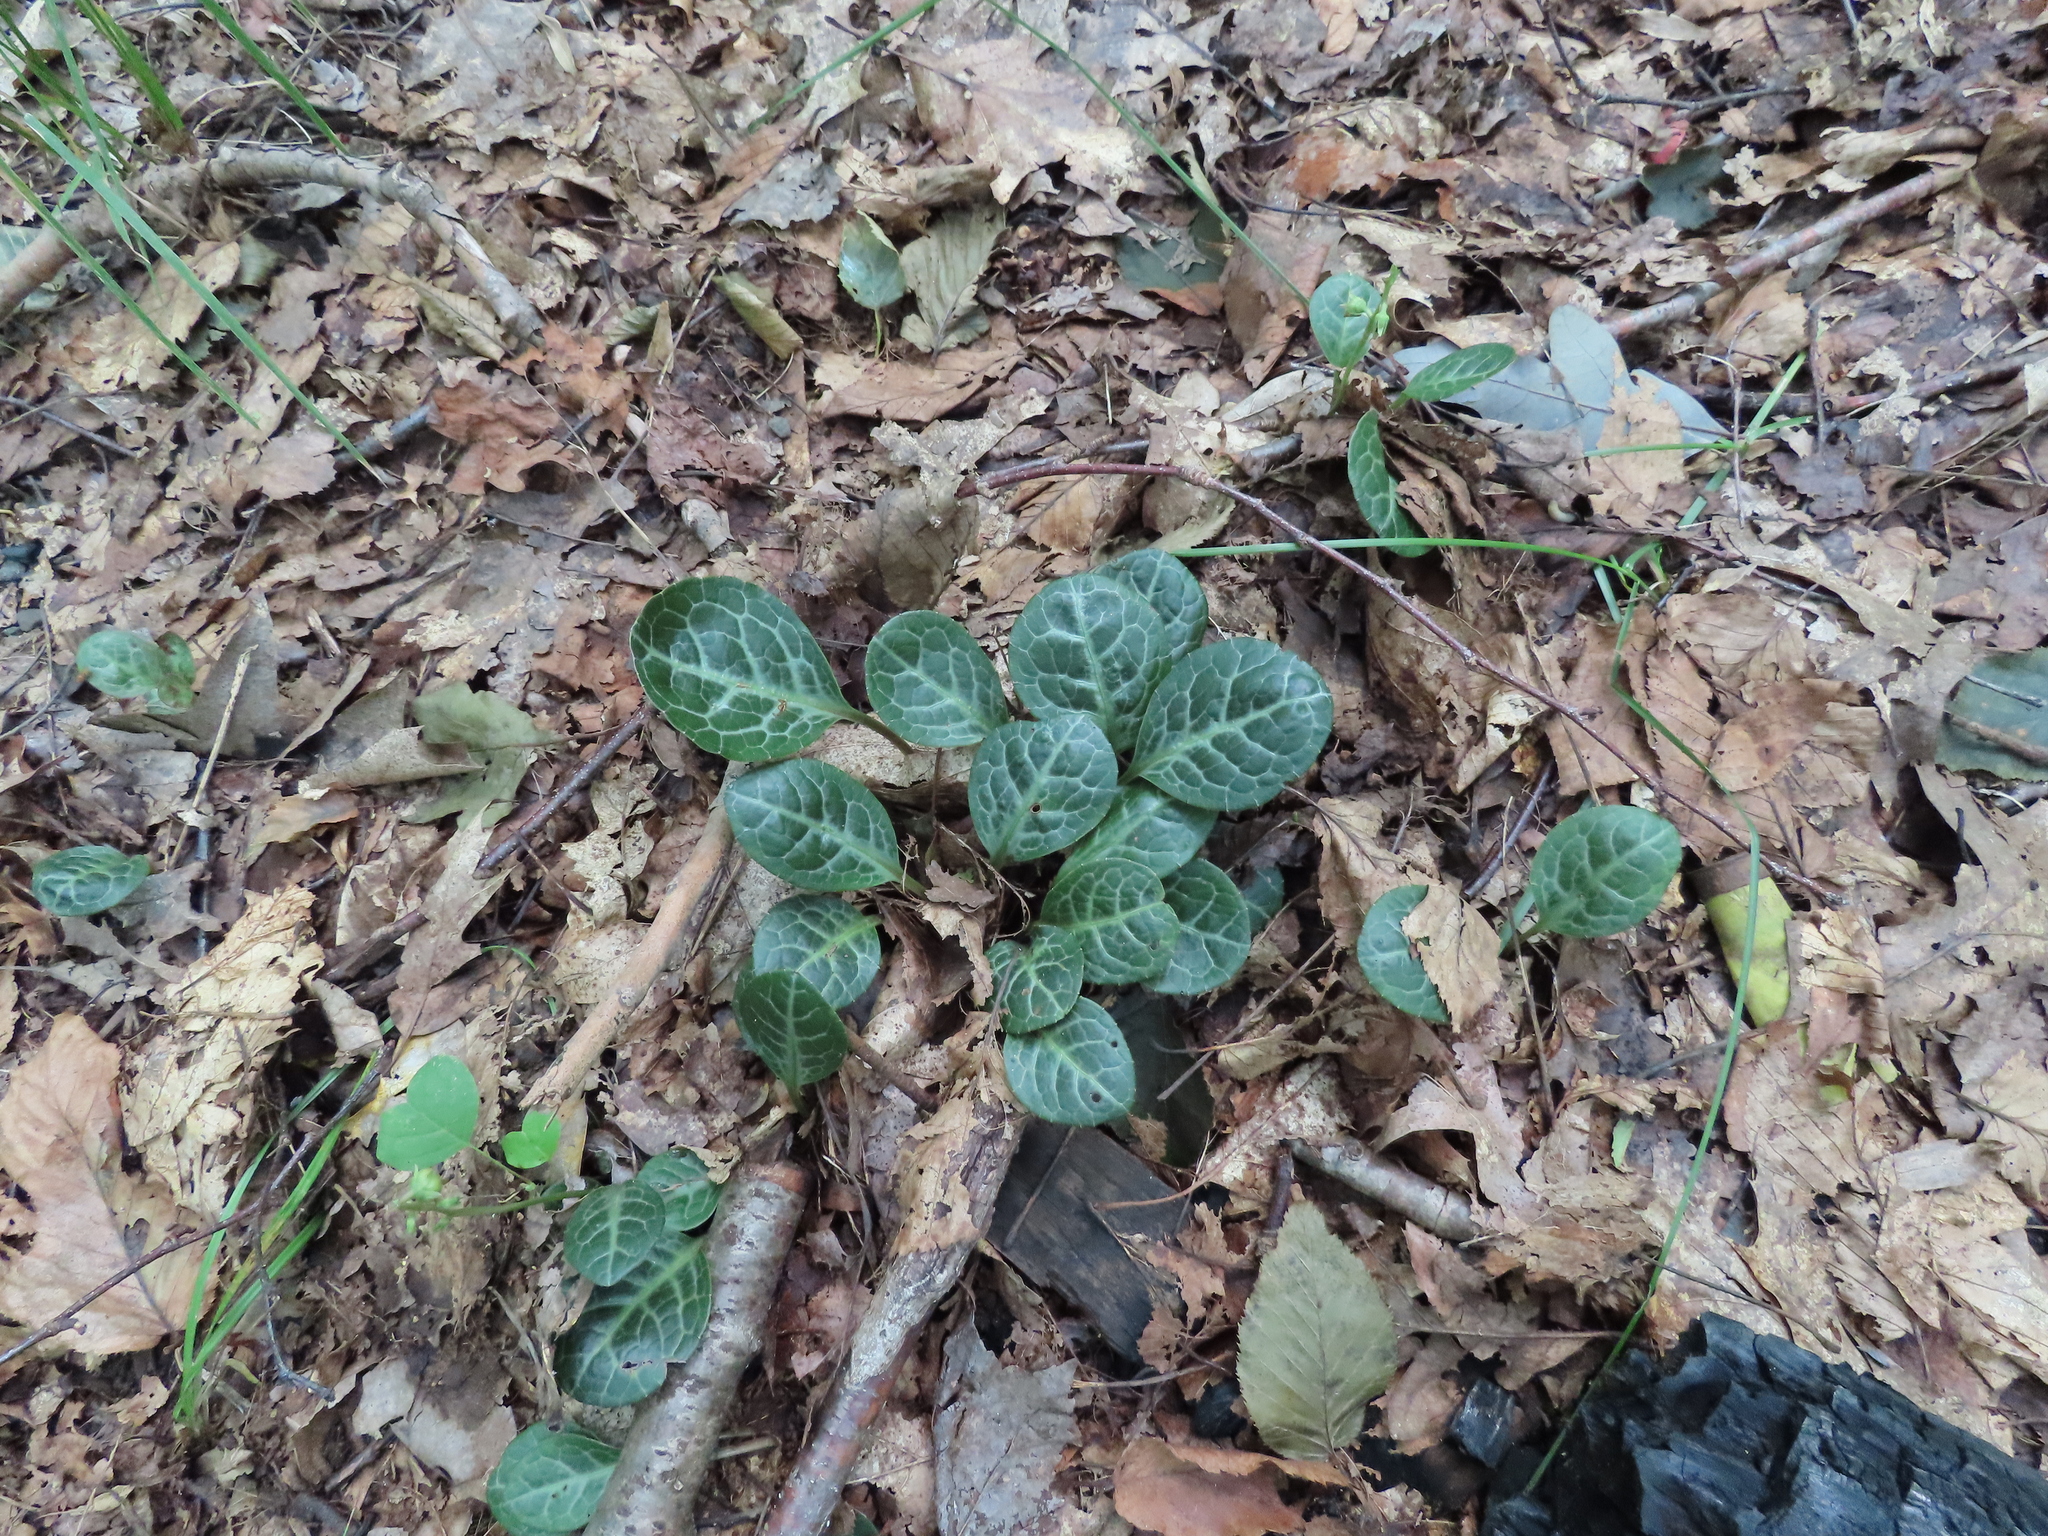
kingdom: Plantae
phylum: Tracheophyta
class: Magnoliopsida
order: Ericales
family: Ericaceae
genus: Pyrola
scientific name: Pyrola americana
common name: American wintergreen
